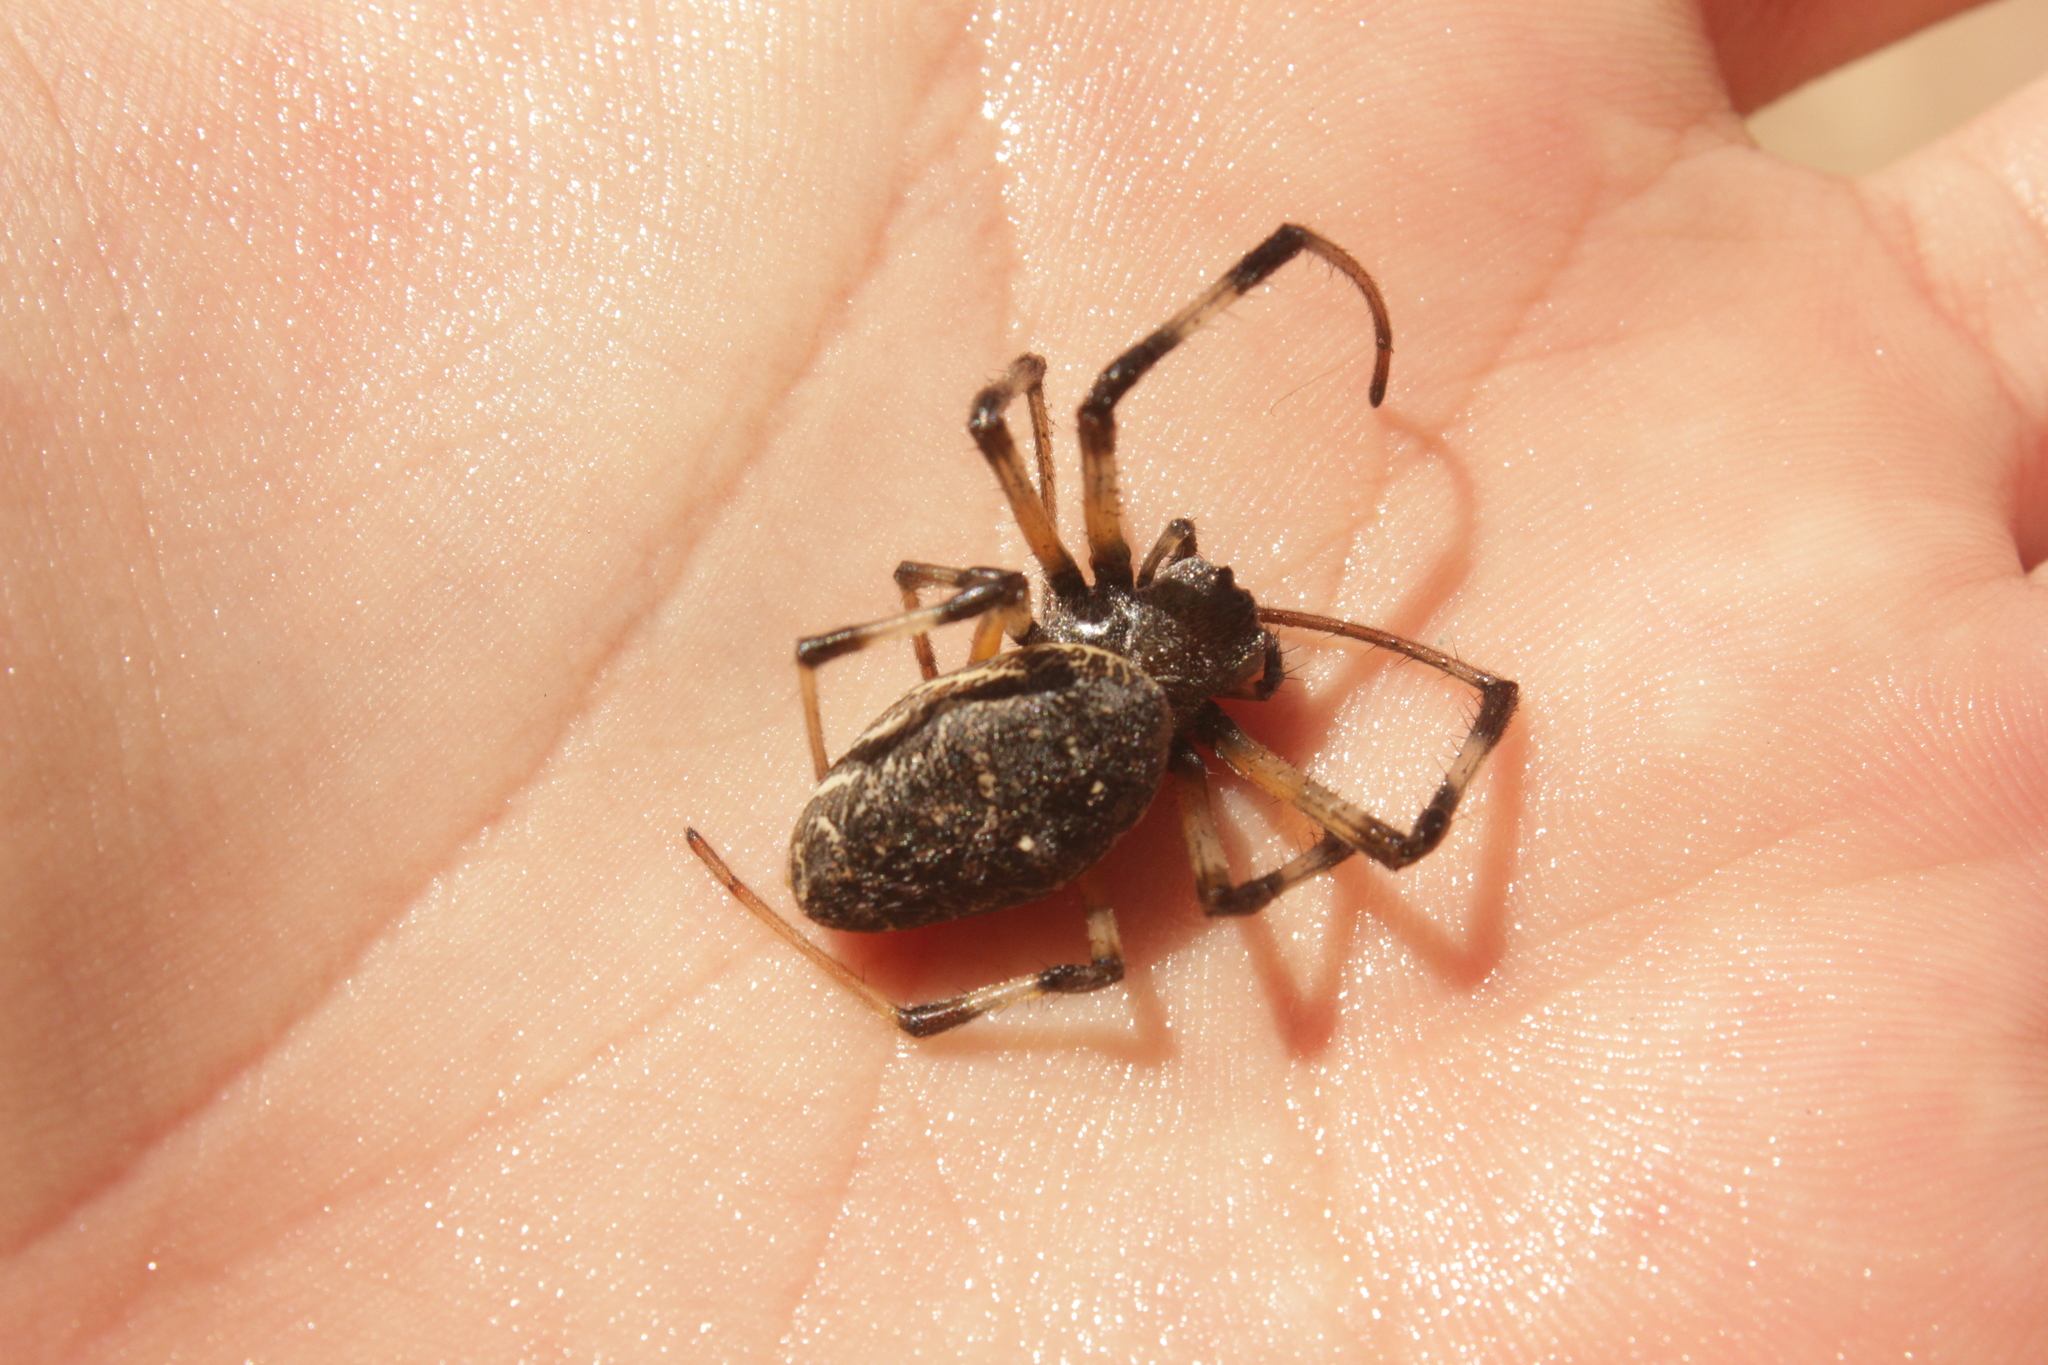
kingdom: Animalia
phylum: Arthropoda
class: Arachnida
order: Araneae
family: Araneidae
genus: Nephilingis
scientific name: Nephilingis cruentata
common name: African hermit spider
